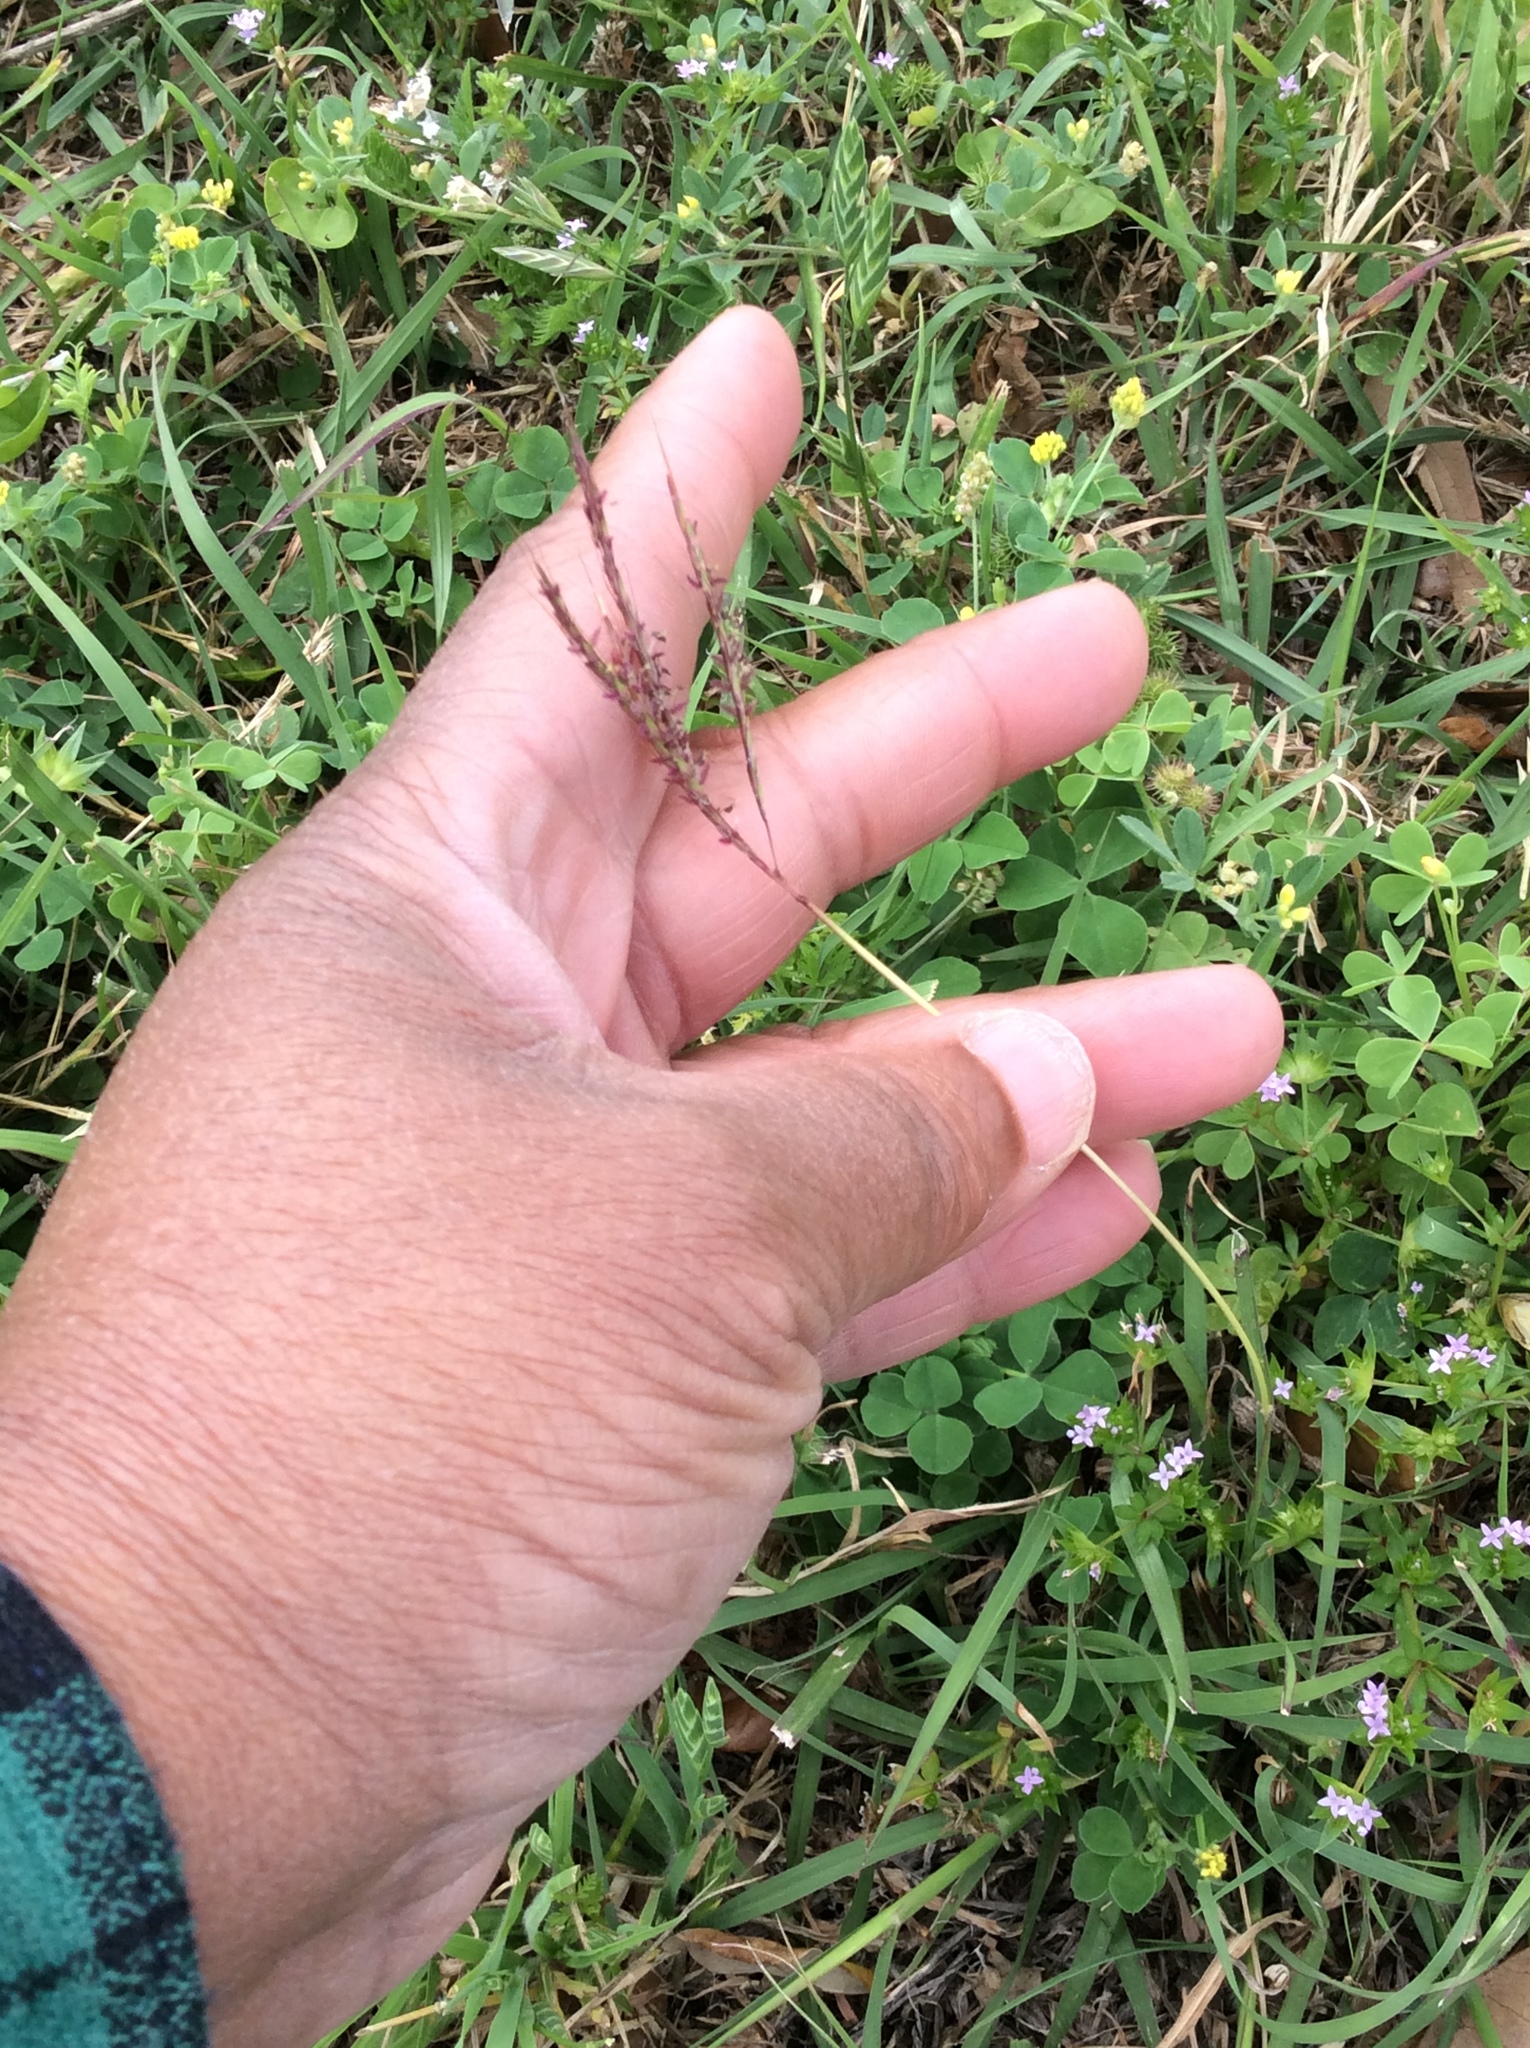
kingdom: Plantae
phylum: Tracheophyta
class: Liliopsida
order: Poales
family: Poaceae
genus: Bothriochloa
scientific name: Bothriochloa ischaemum
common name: Yellow bluestem
